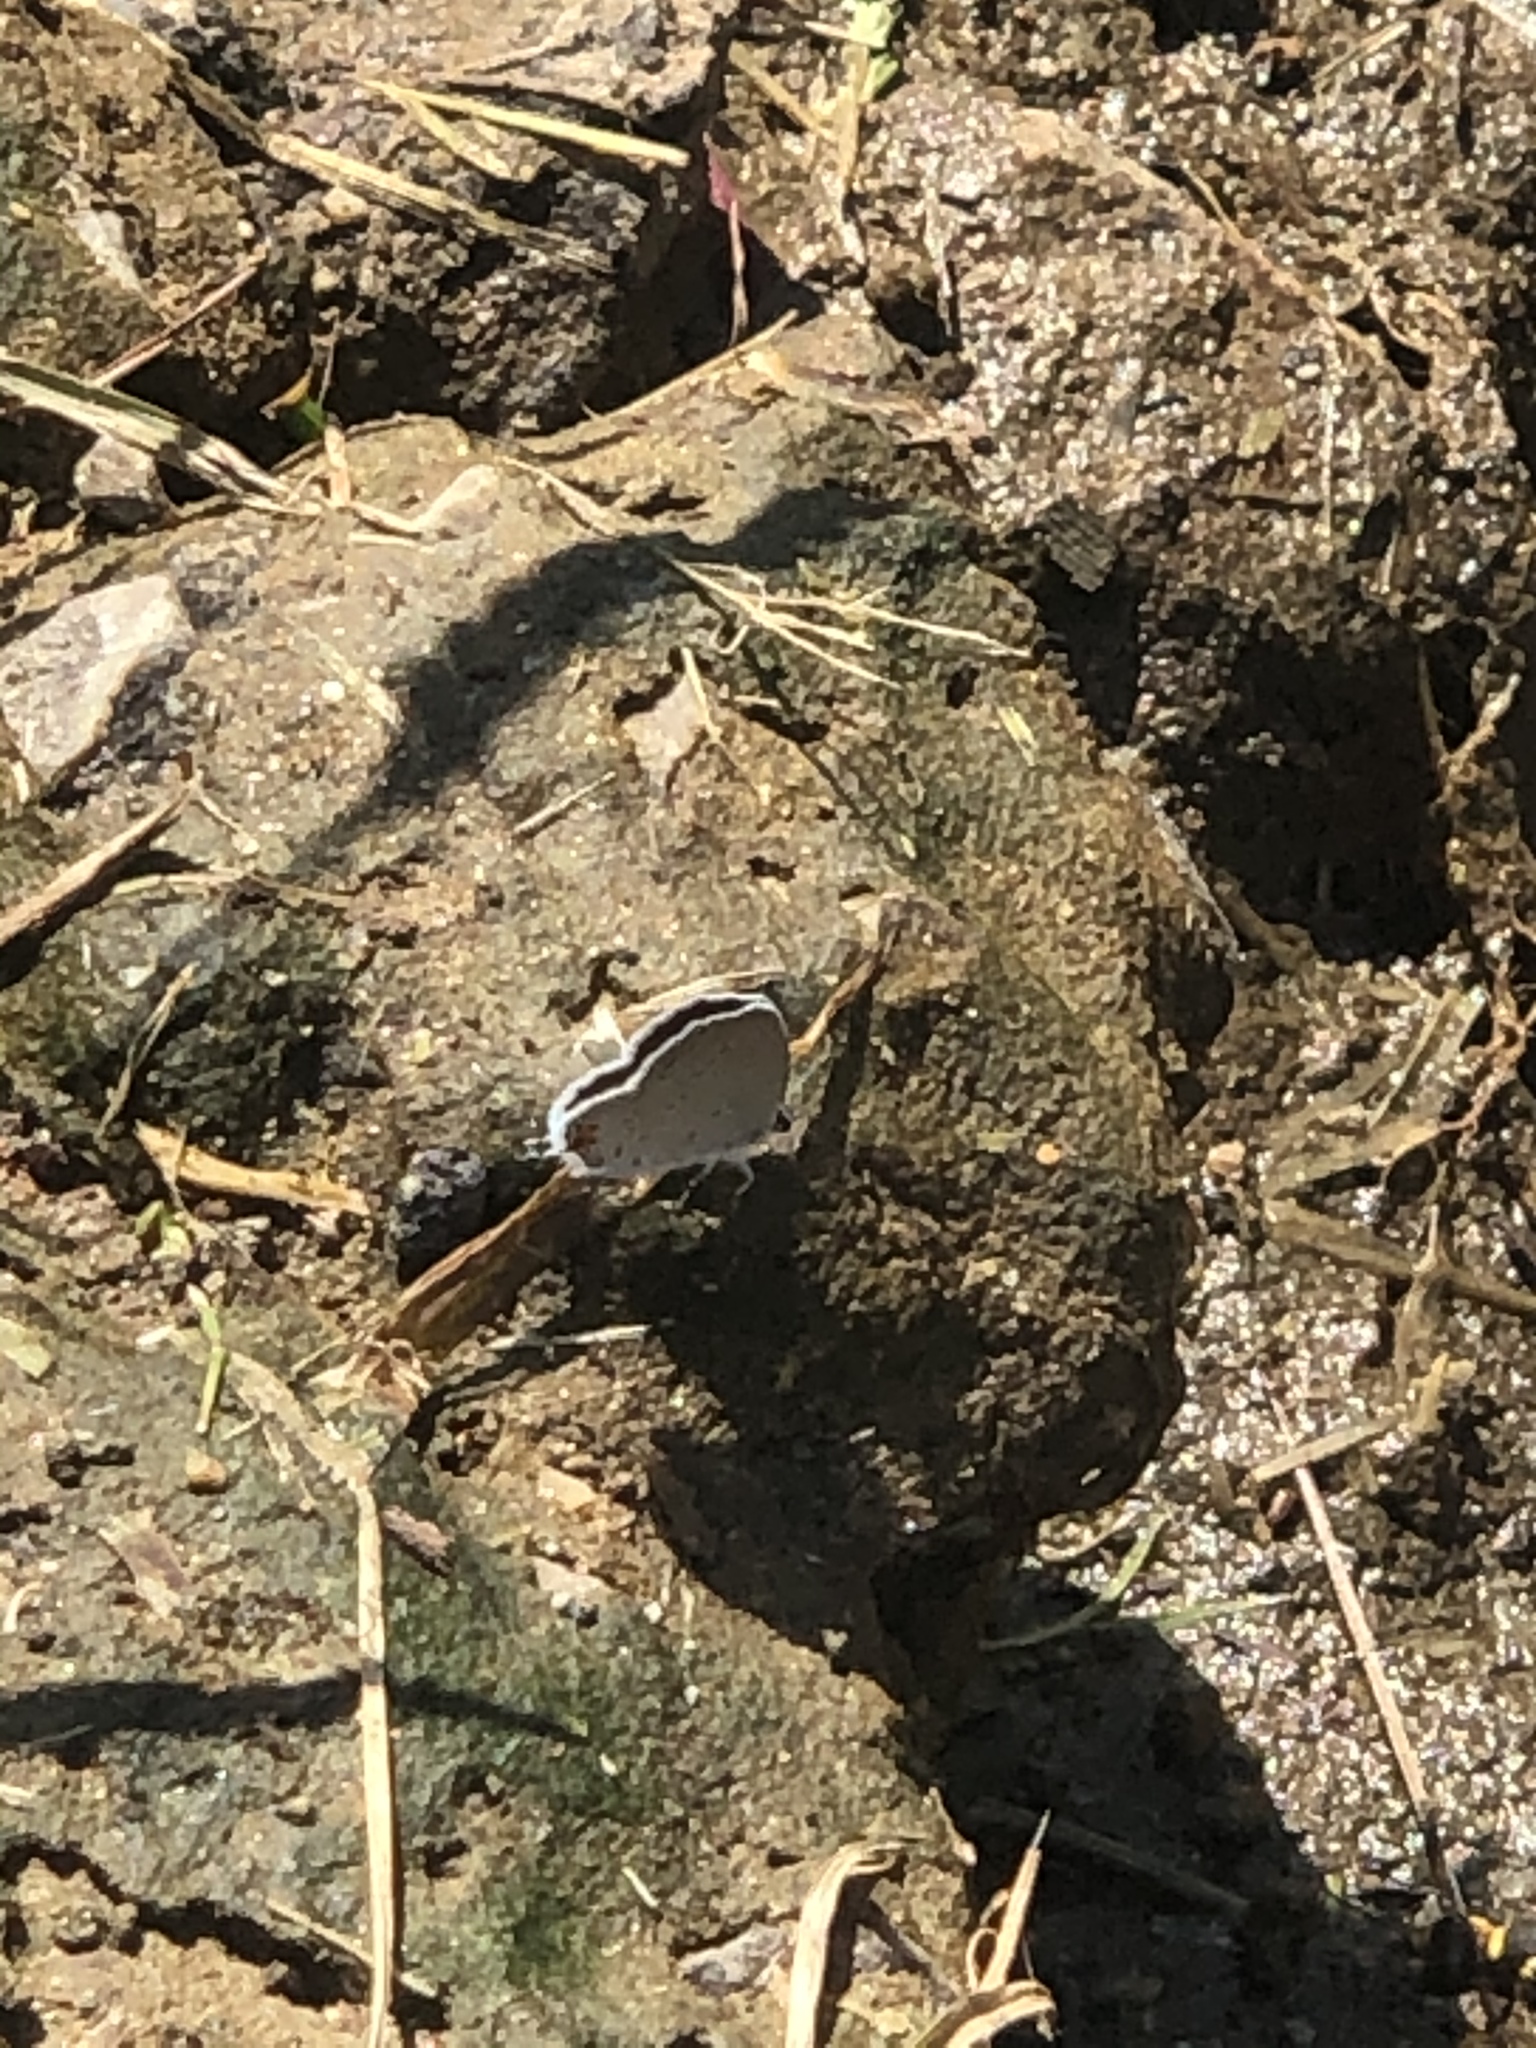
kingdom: Animalia
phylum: Arthropoda
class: Insecta
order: Lepidoptera
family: Lycaenidae
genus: Elkalyce
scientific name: Elkalyce comyntas
